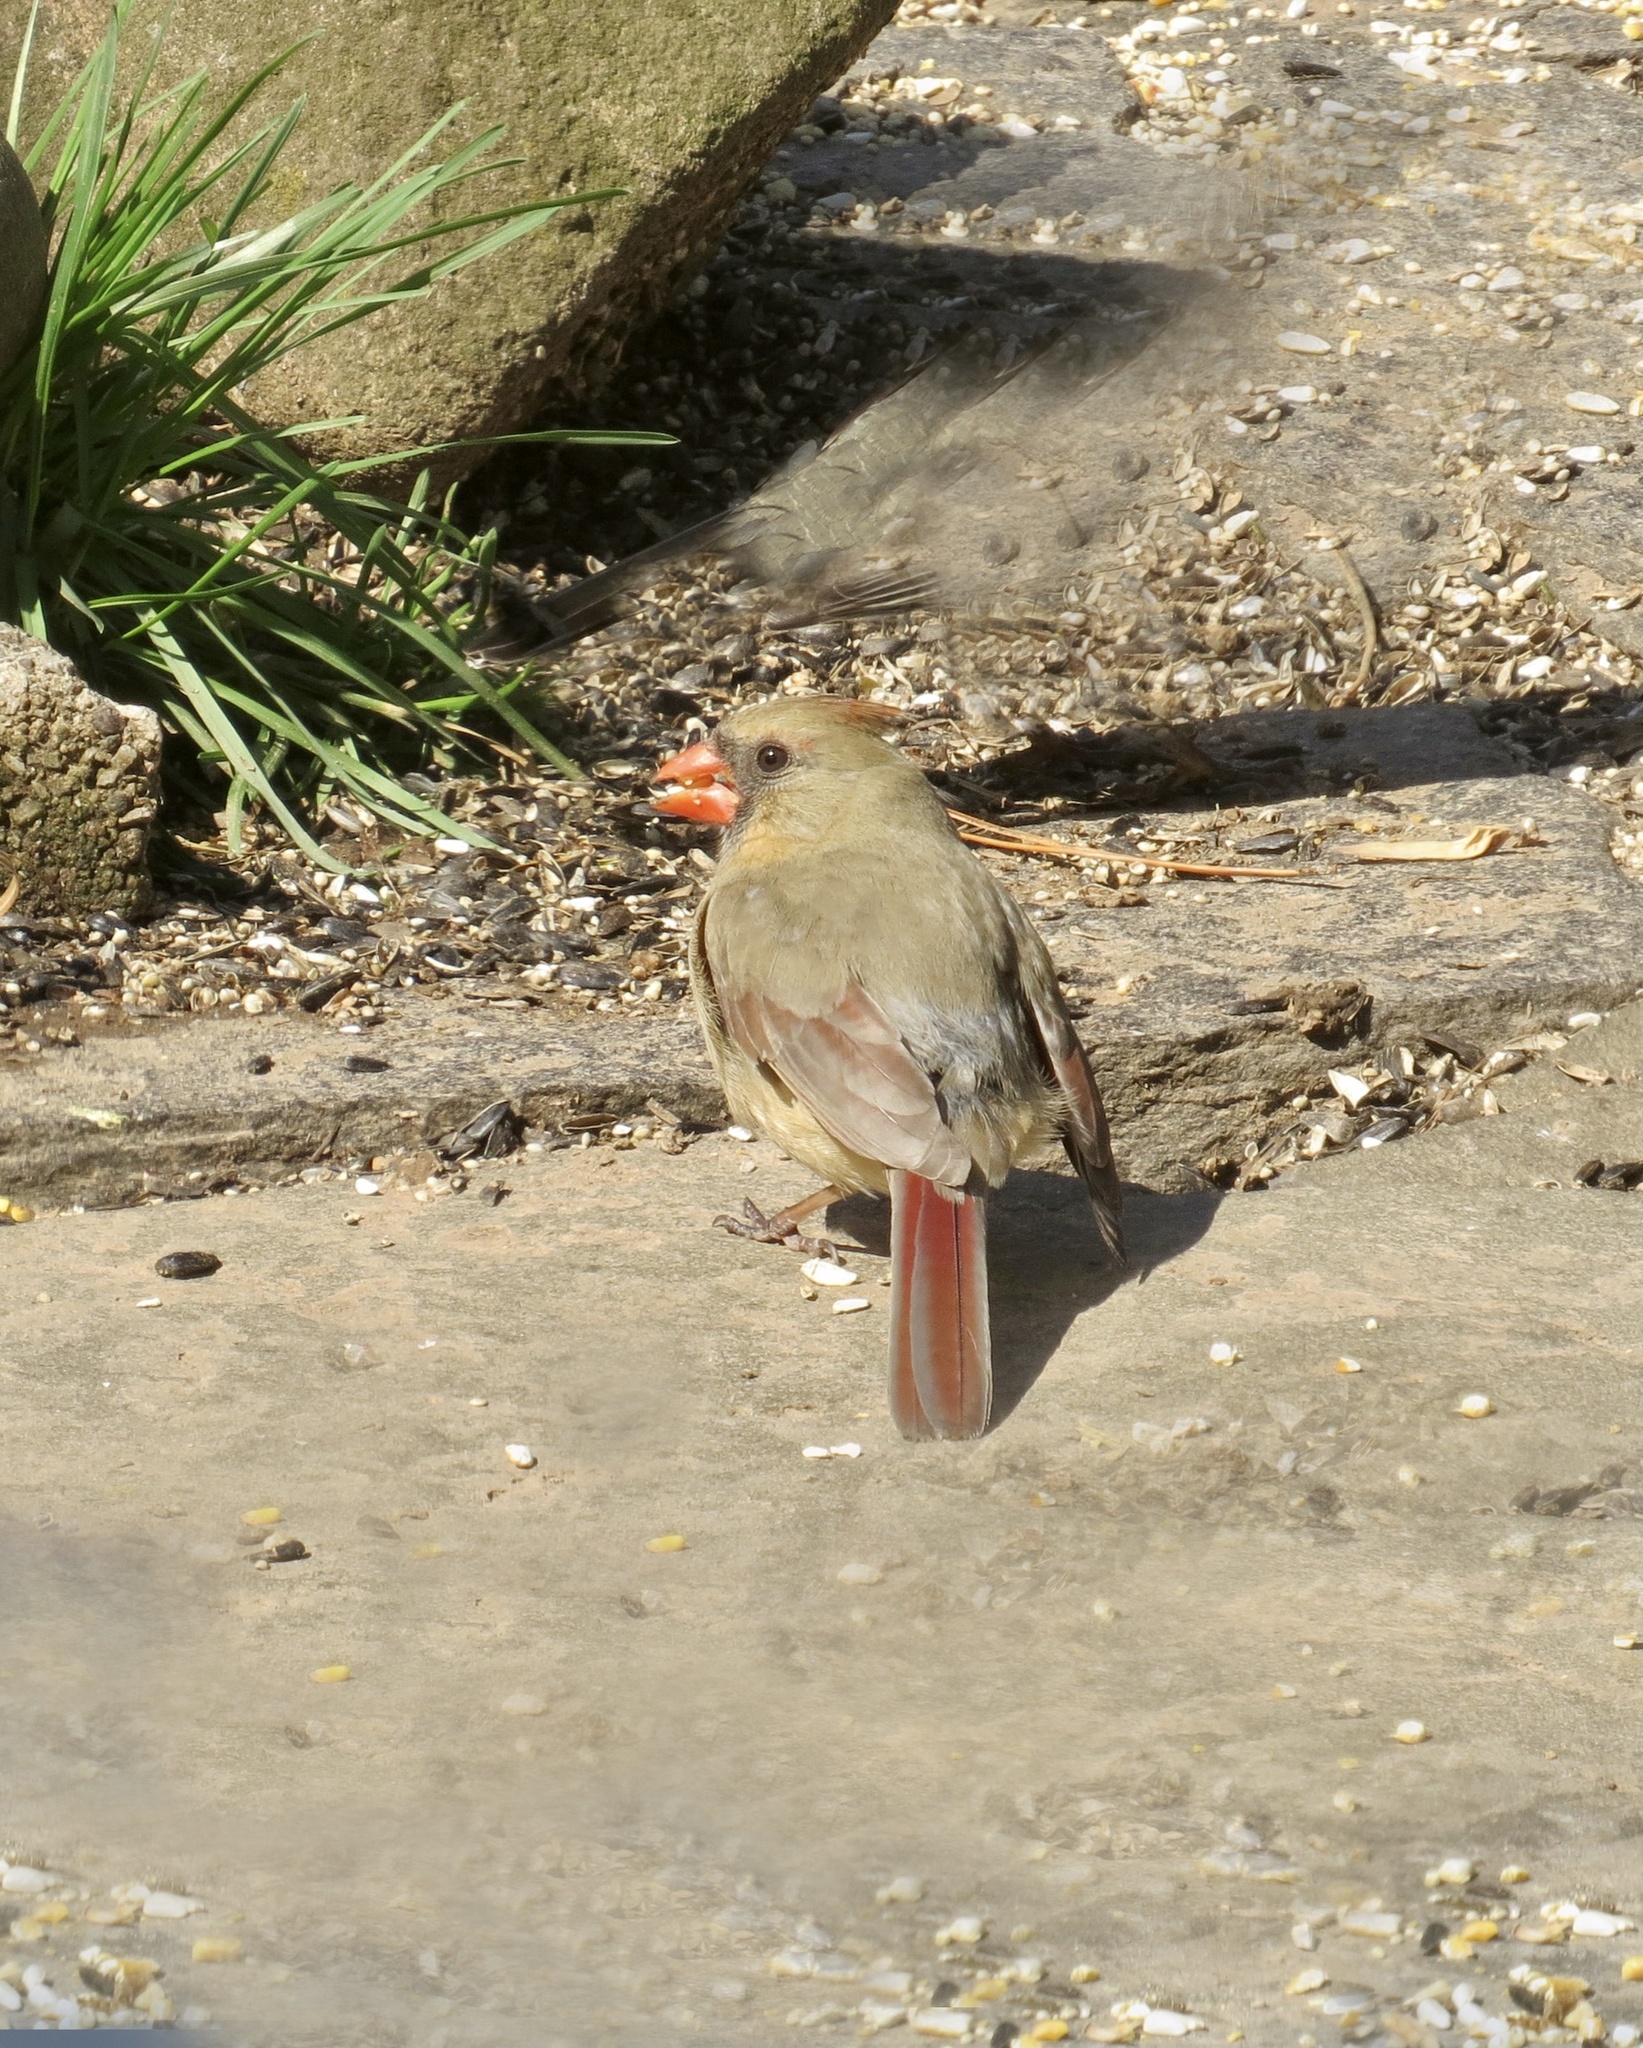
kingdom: Animalia
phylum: Chordata
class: Aves
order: Passeriformes
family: Cardinalidae
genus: Cardinalis
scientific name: Cardinalis cardinalis
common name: Northern cardinal
